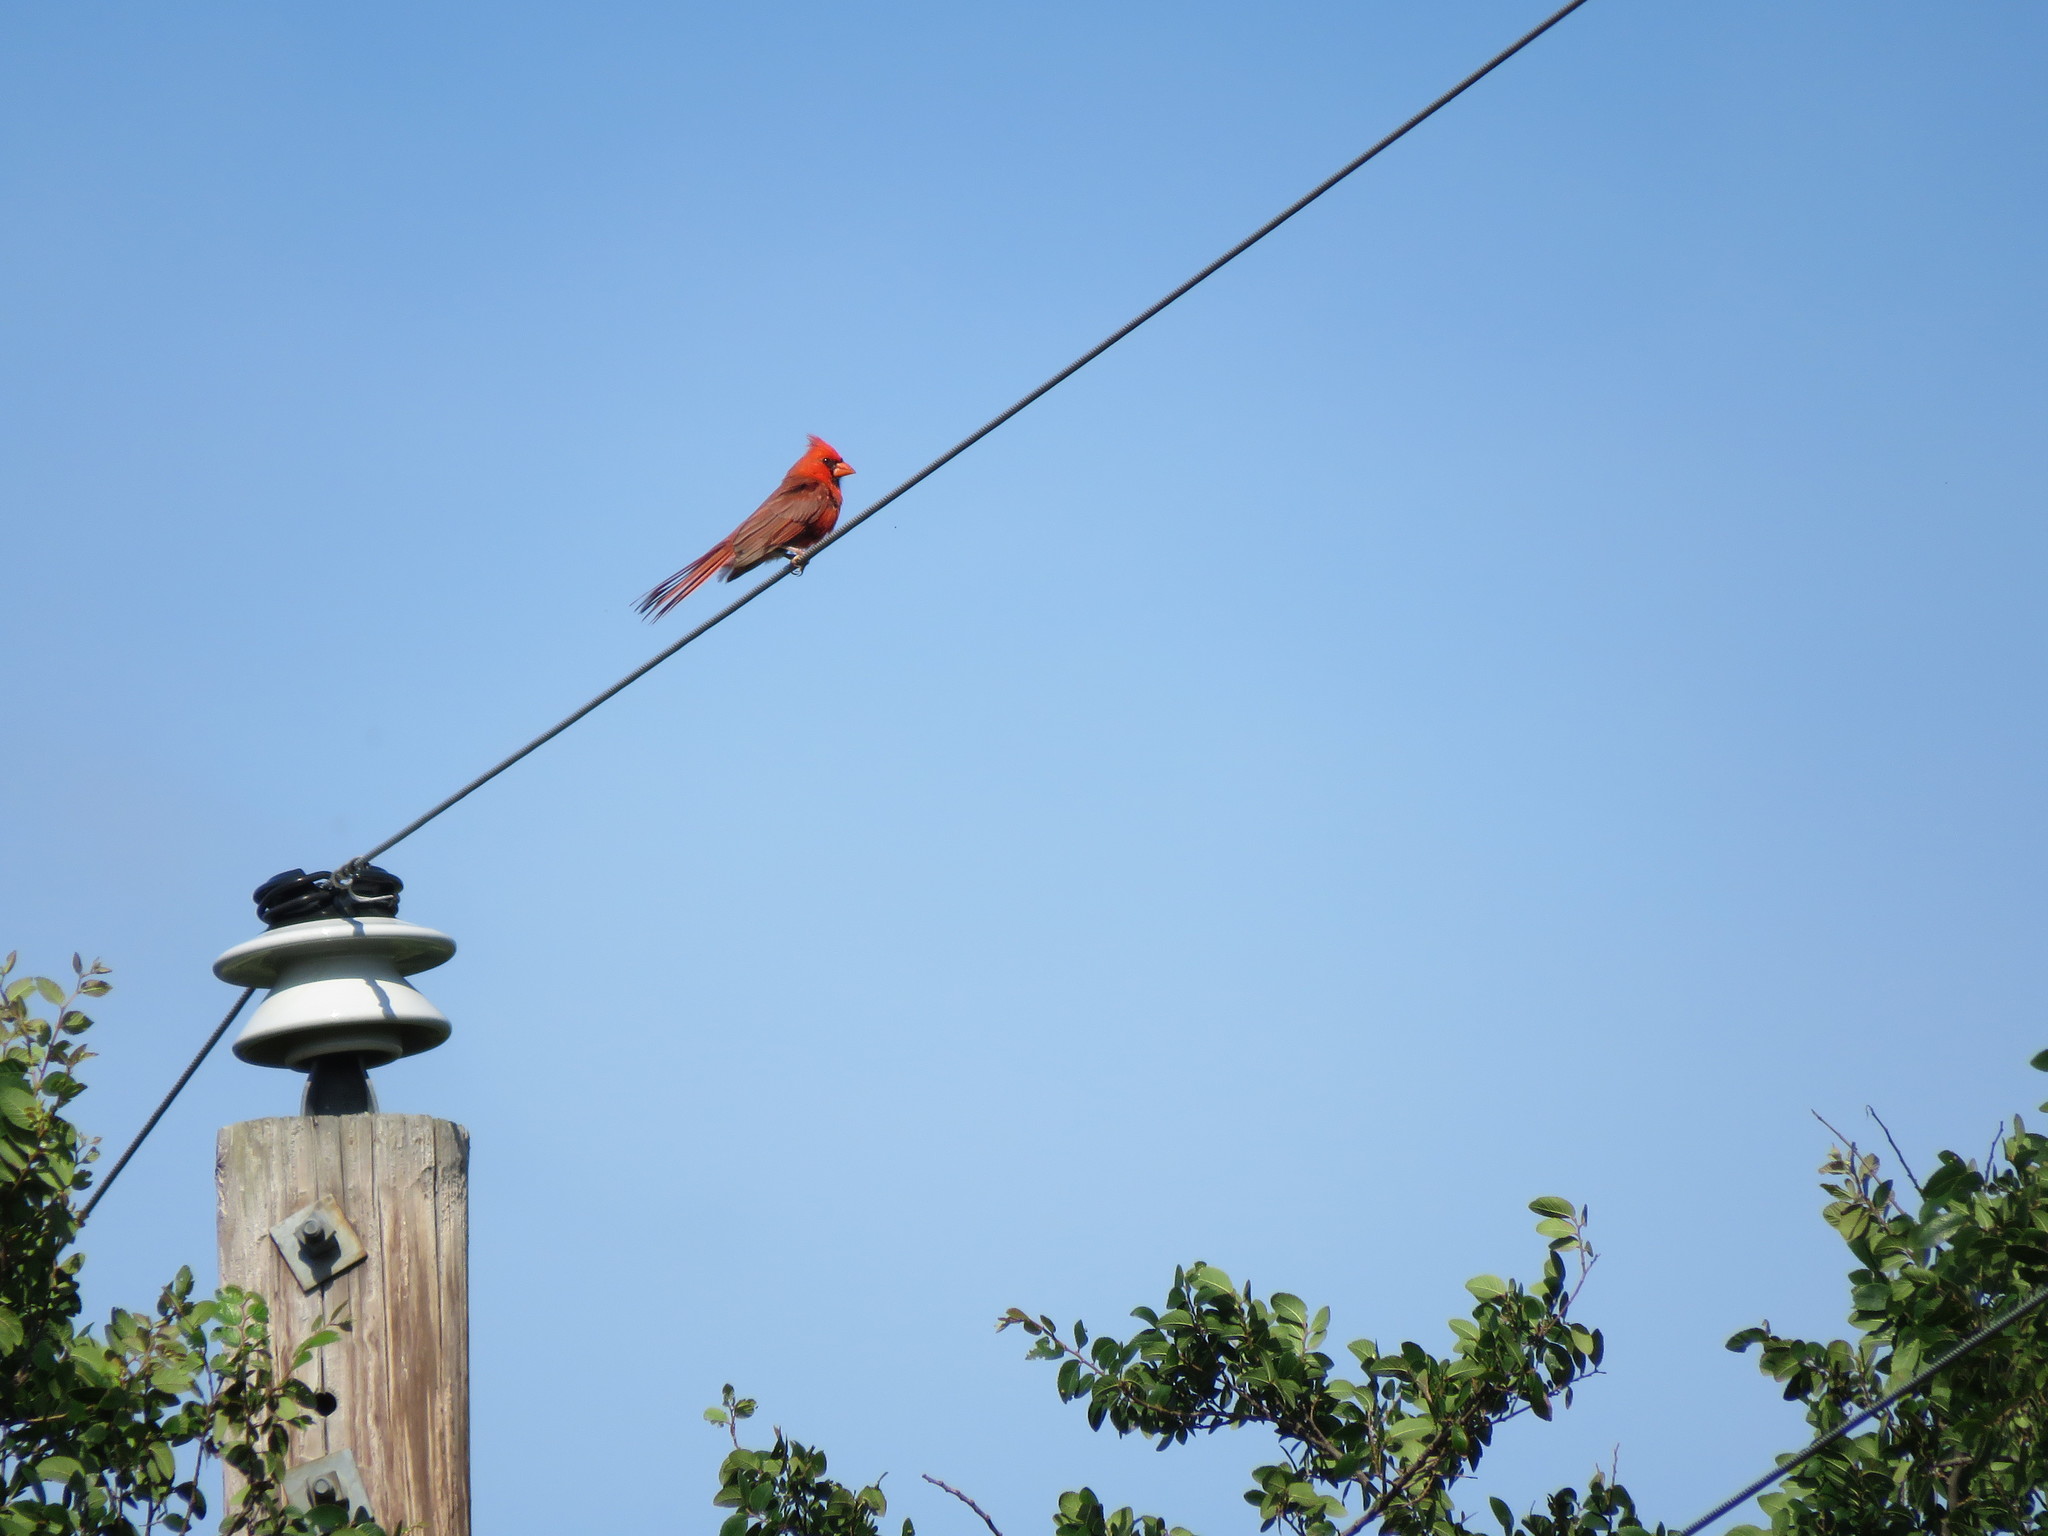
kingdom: Animalia
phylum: Chordata
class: Aves
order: Passeriformes
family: Cardinalidae
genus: Cardinalis
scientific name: Cardinalis cardinalis
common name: Northern cardinal
